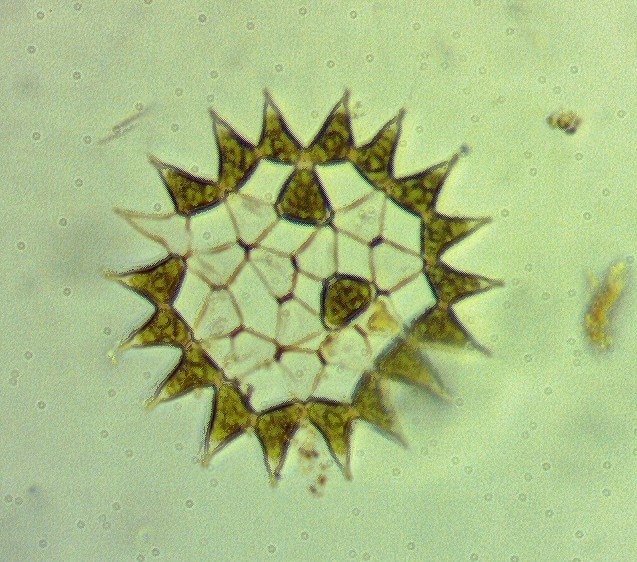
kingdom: Plantae
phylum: Chlorophyta
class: Chlorophyceae
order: Sphaeropleales
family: Hydrodictyaceae
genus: Monactinus
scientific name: Monactinus simplex
